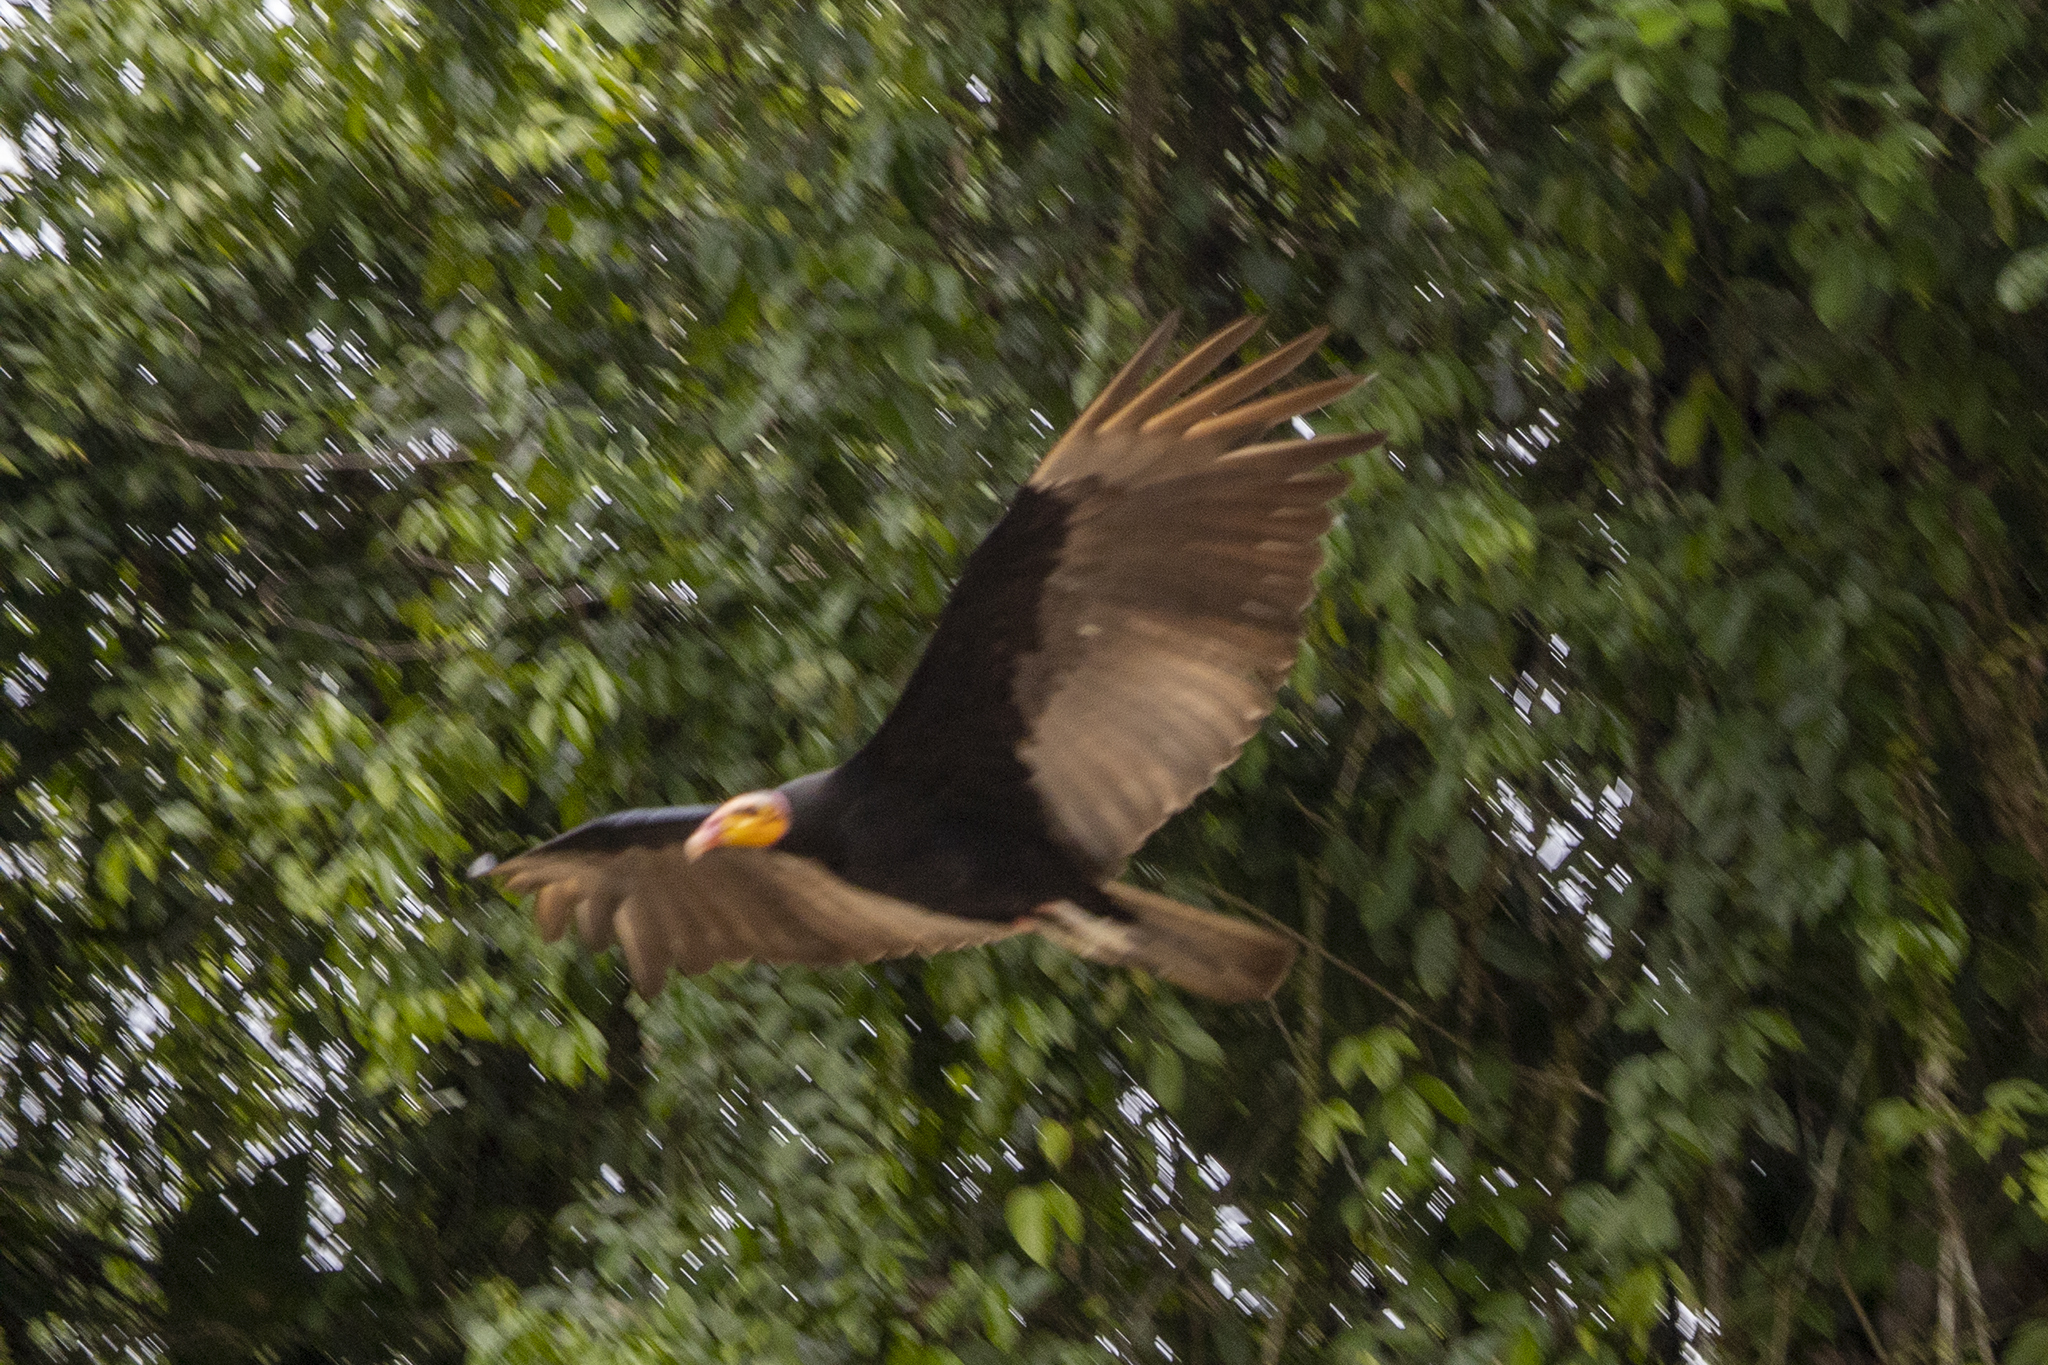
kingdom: Animalia
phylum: Chordata
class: Aves
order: Accipitriformes
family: Cathartidae
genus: Cathartes
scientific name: Cathartes burrovianus
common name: Lesser yellow-headed vulture
